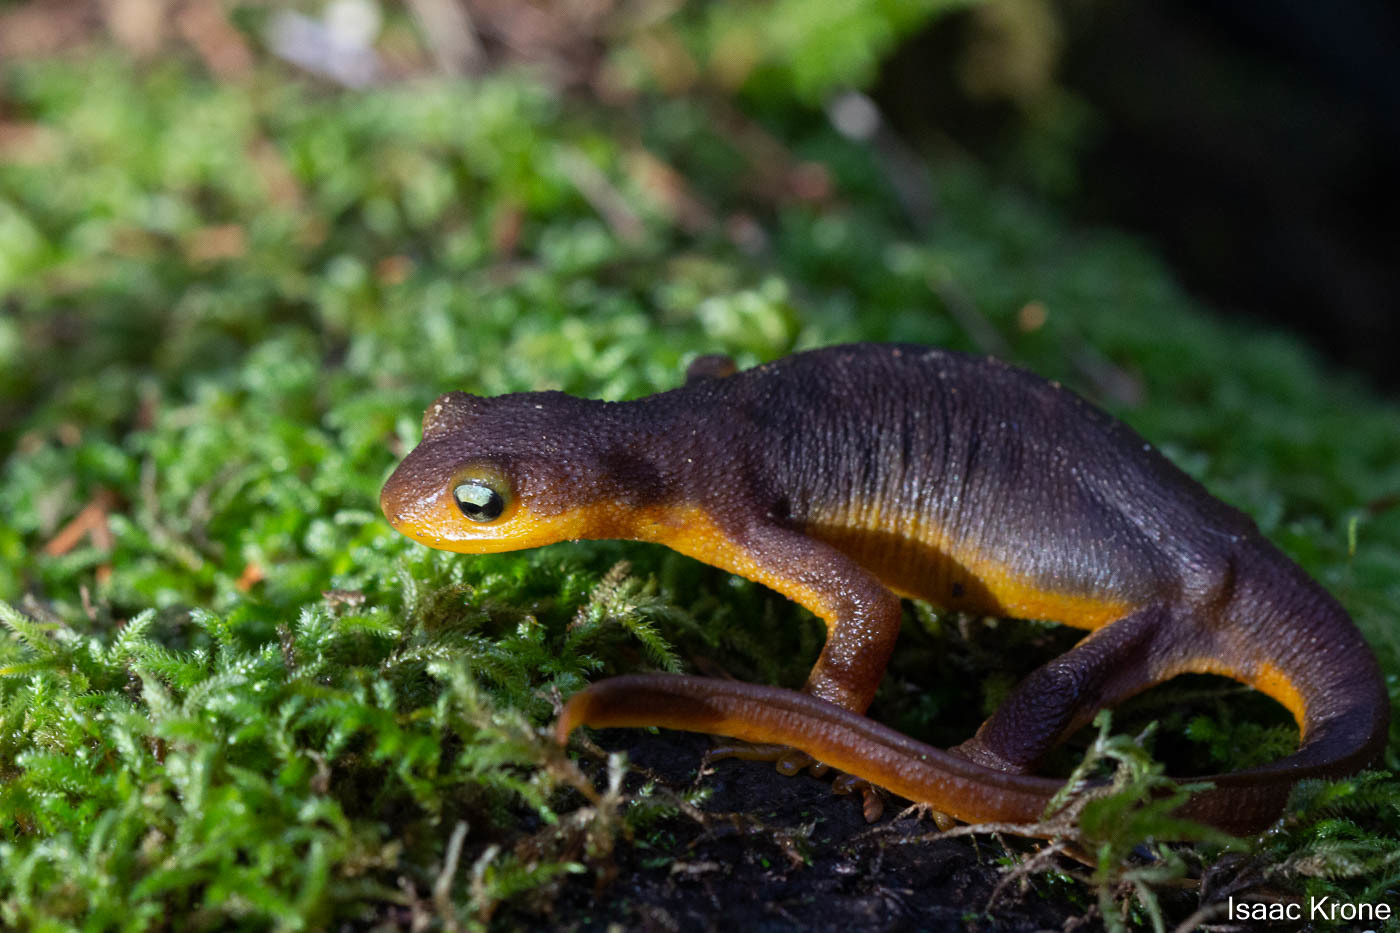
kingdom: Animalia
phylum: Chordata
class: Amphibia
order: Caudata
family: Salamandridae
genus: Taricha
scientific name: Taricha torosa
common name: California newt
